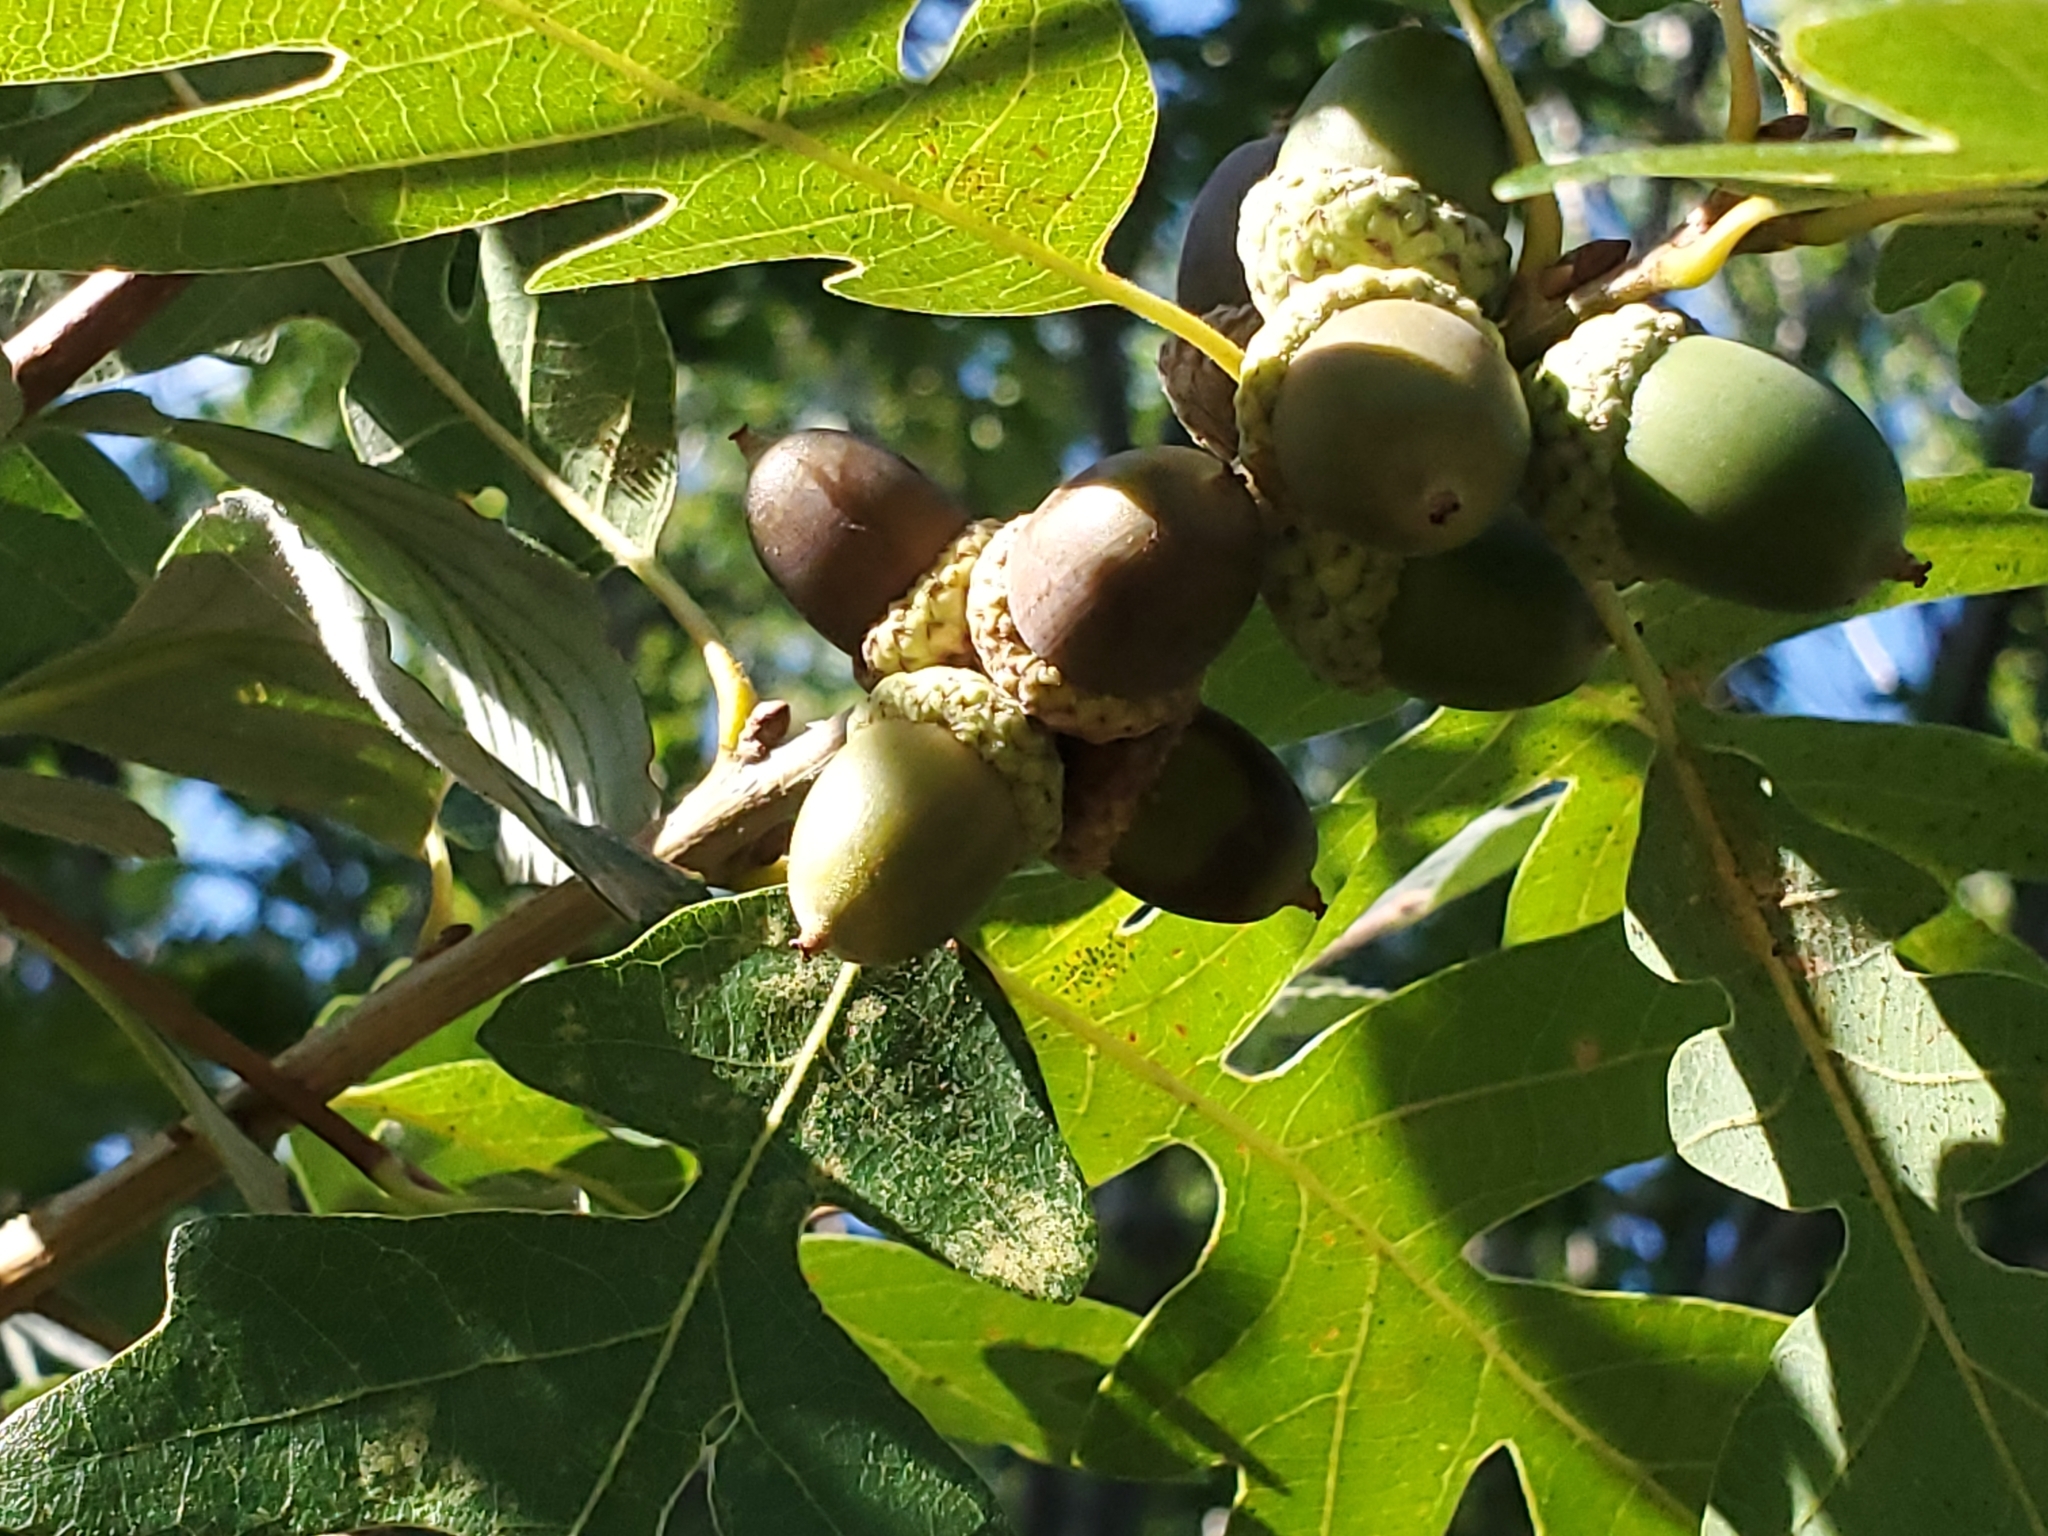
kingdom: Plantae
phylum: Tracheophyta
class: Magnoliopsida
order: Fagales
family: Fagaceae
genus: Quercus
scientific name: Quercus gambelii
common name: Gambel oak
